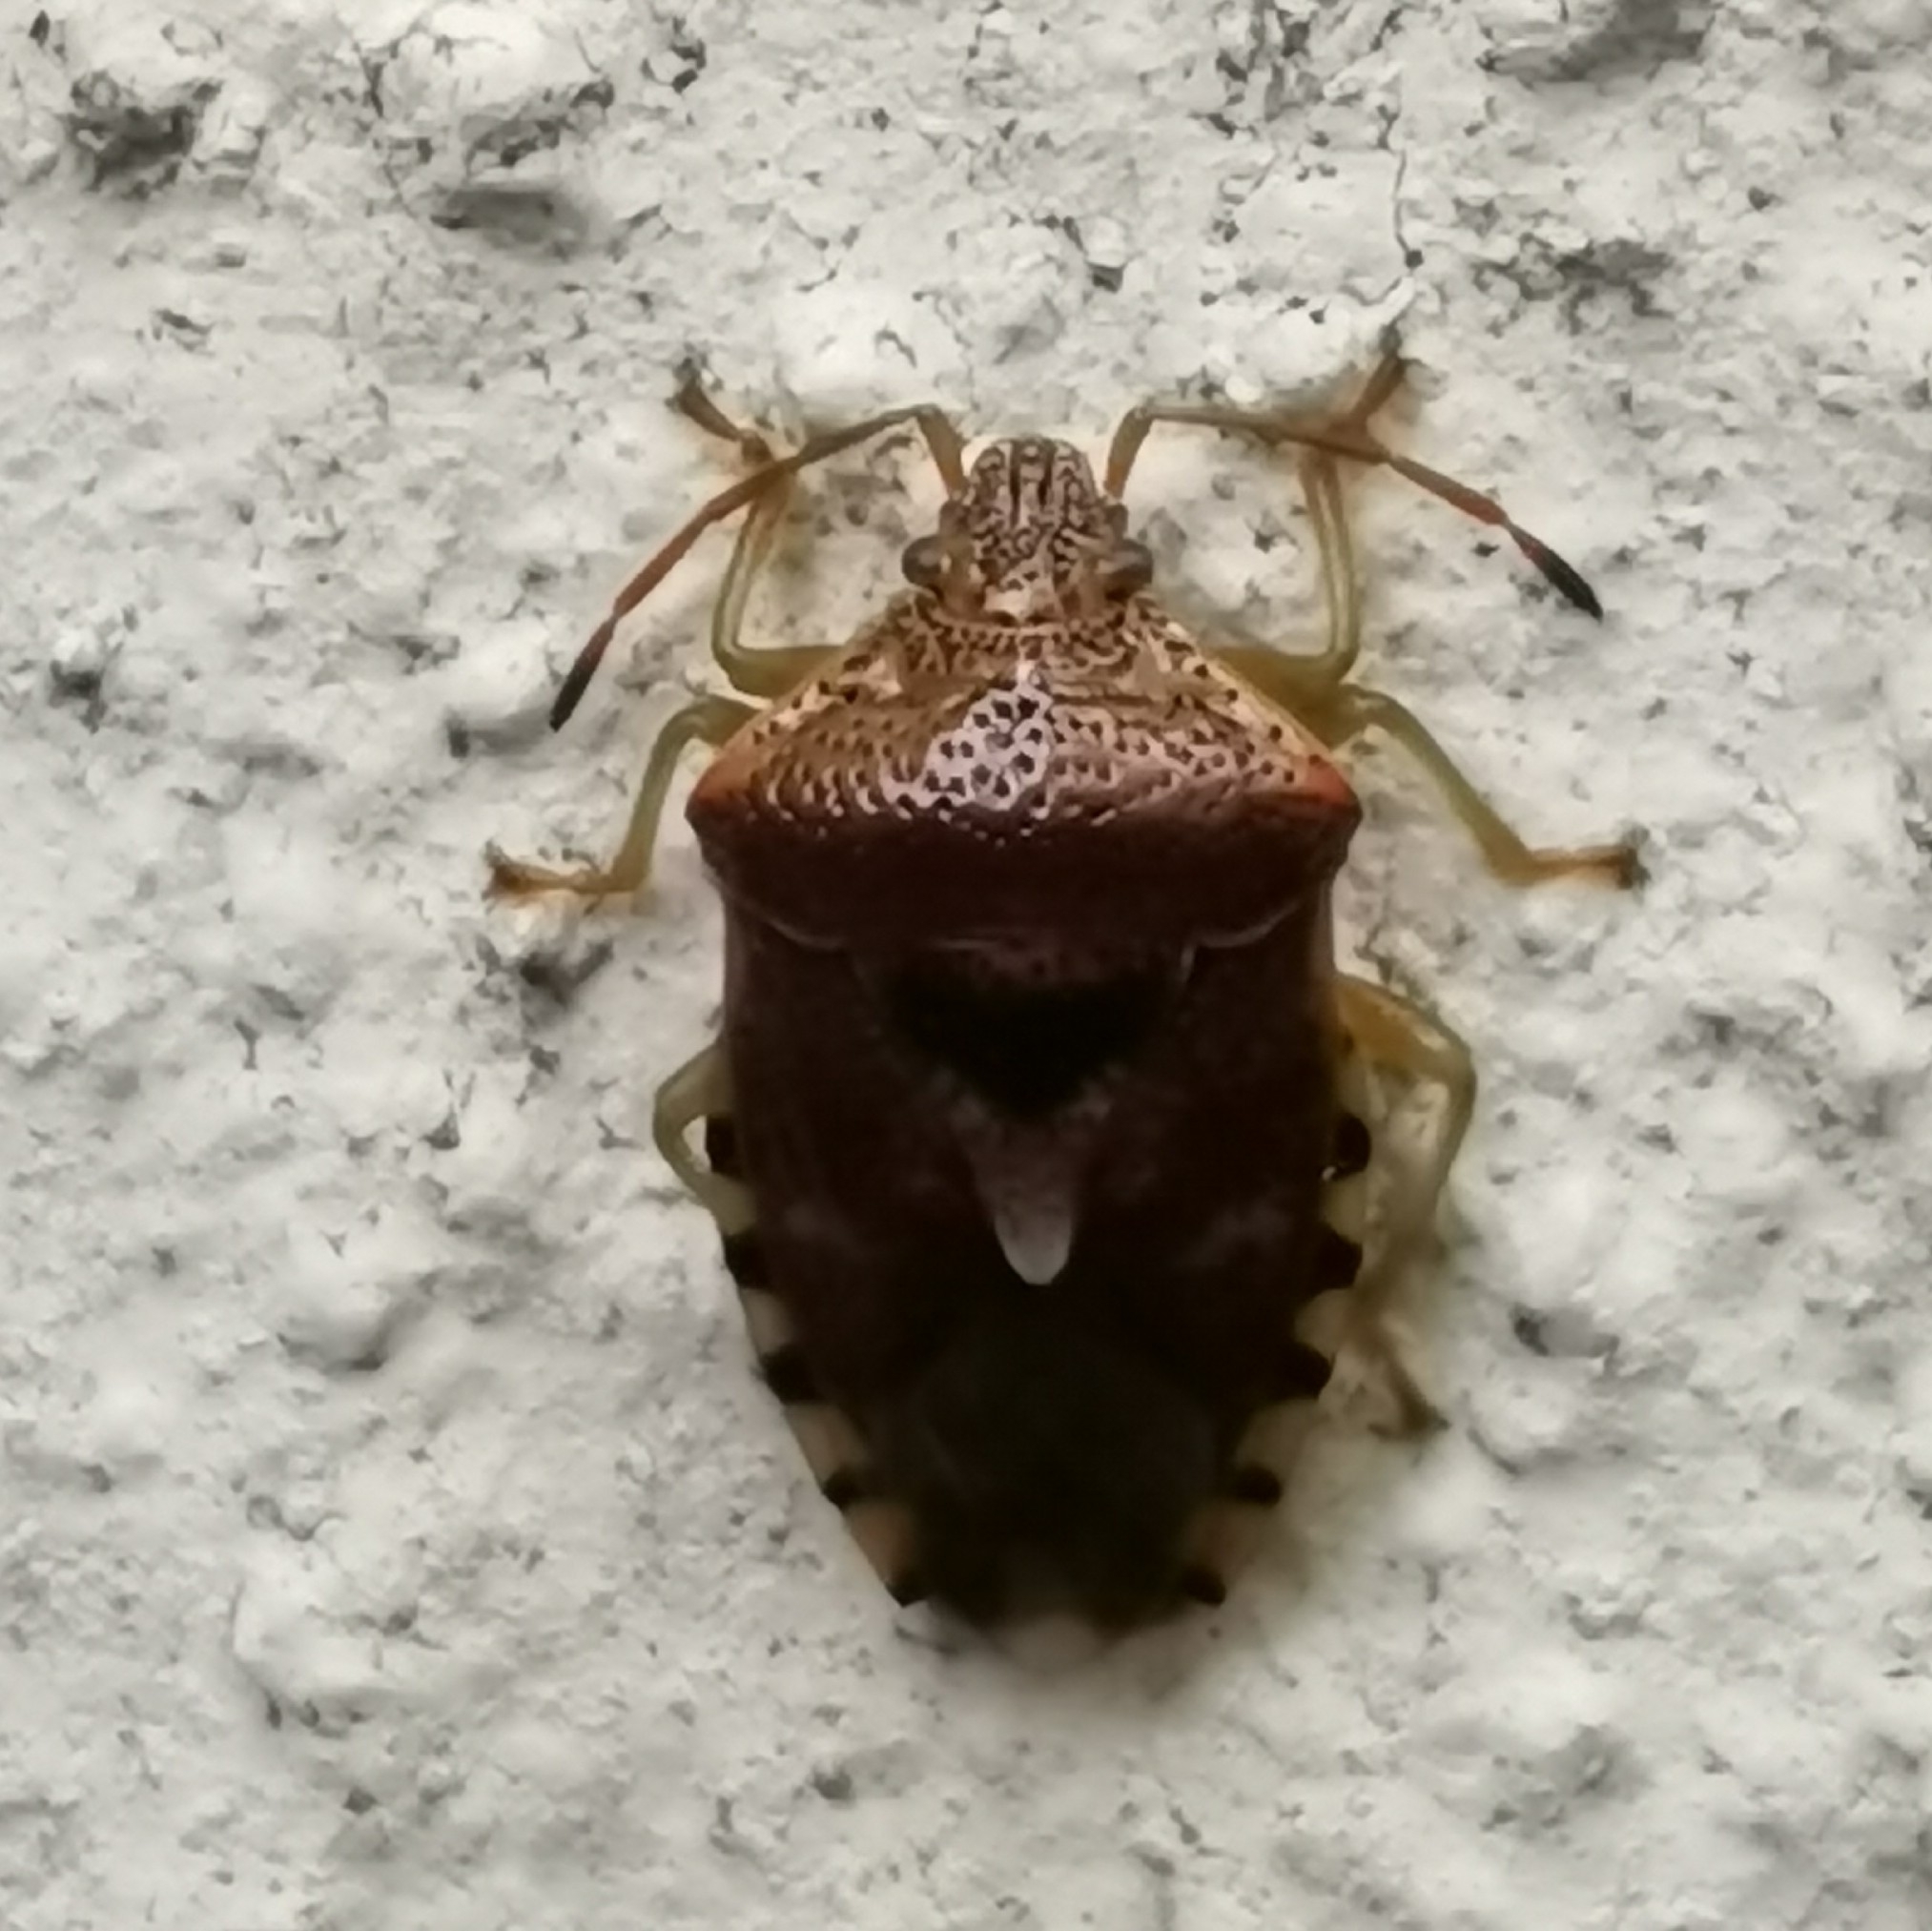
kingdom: Animalia
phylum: Arthropoda
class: Insecta
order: Hemiptera
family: Acanthosomatidae
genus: Elasmucha
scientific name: Elasmucha grisea
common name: Parent bug
